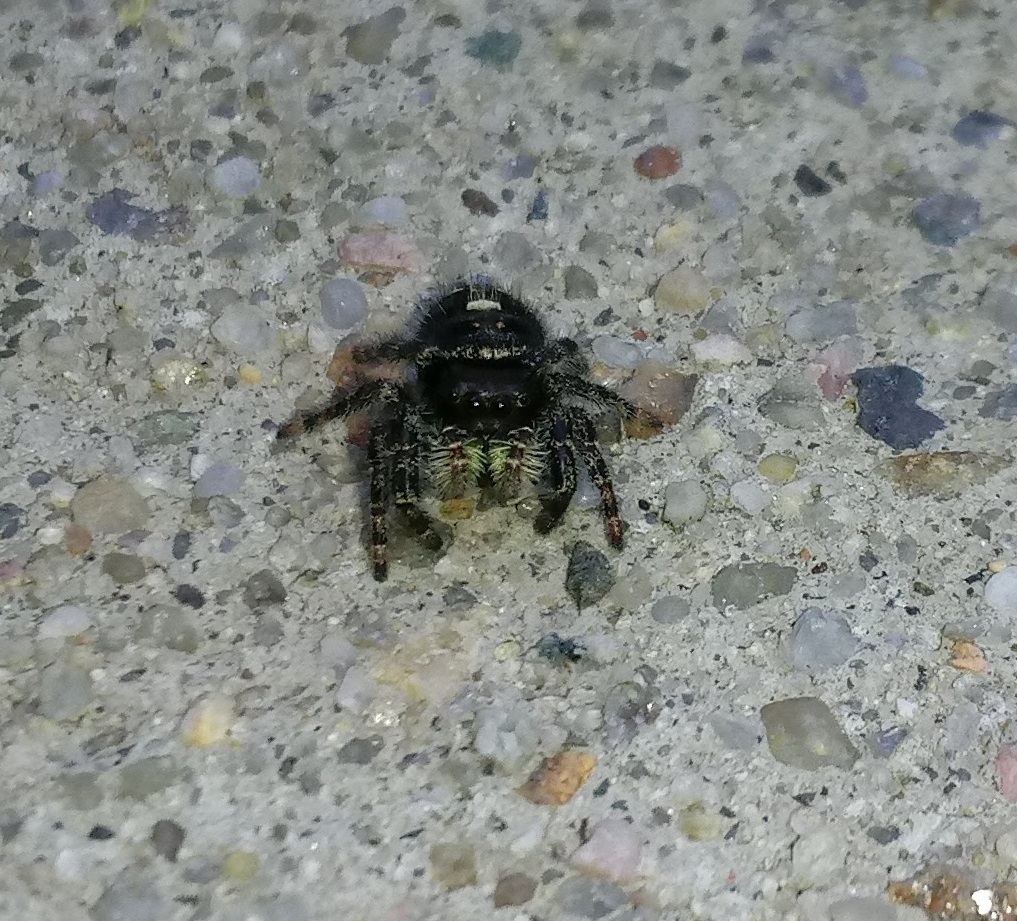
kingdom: Animalia
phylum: Arthropoda
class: Arachnida
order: Araneae
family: Salticidae
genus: Phidippus
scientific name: Phidippus audax
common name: Bold jumper
